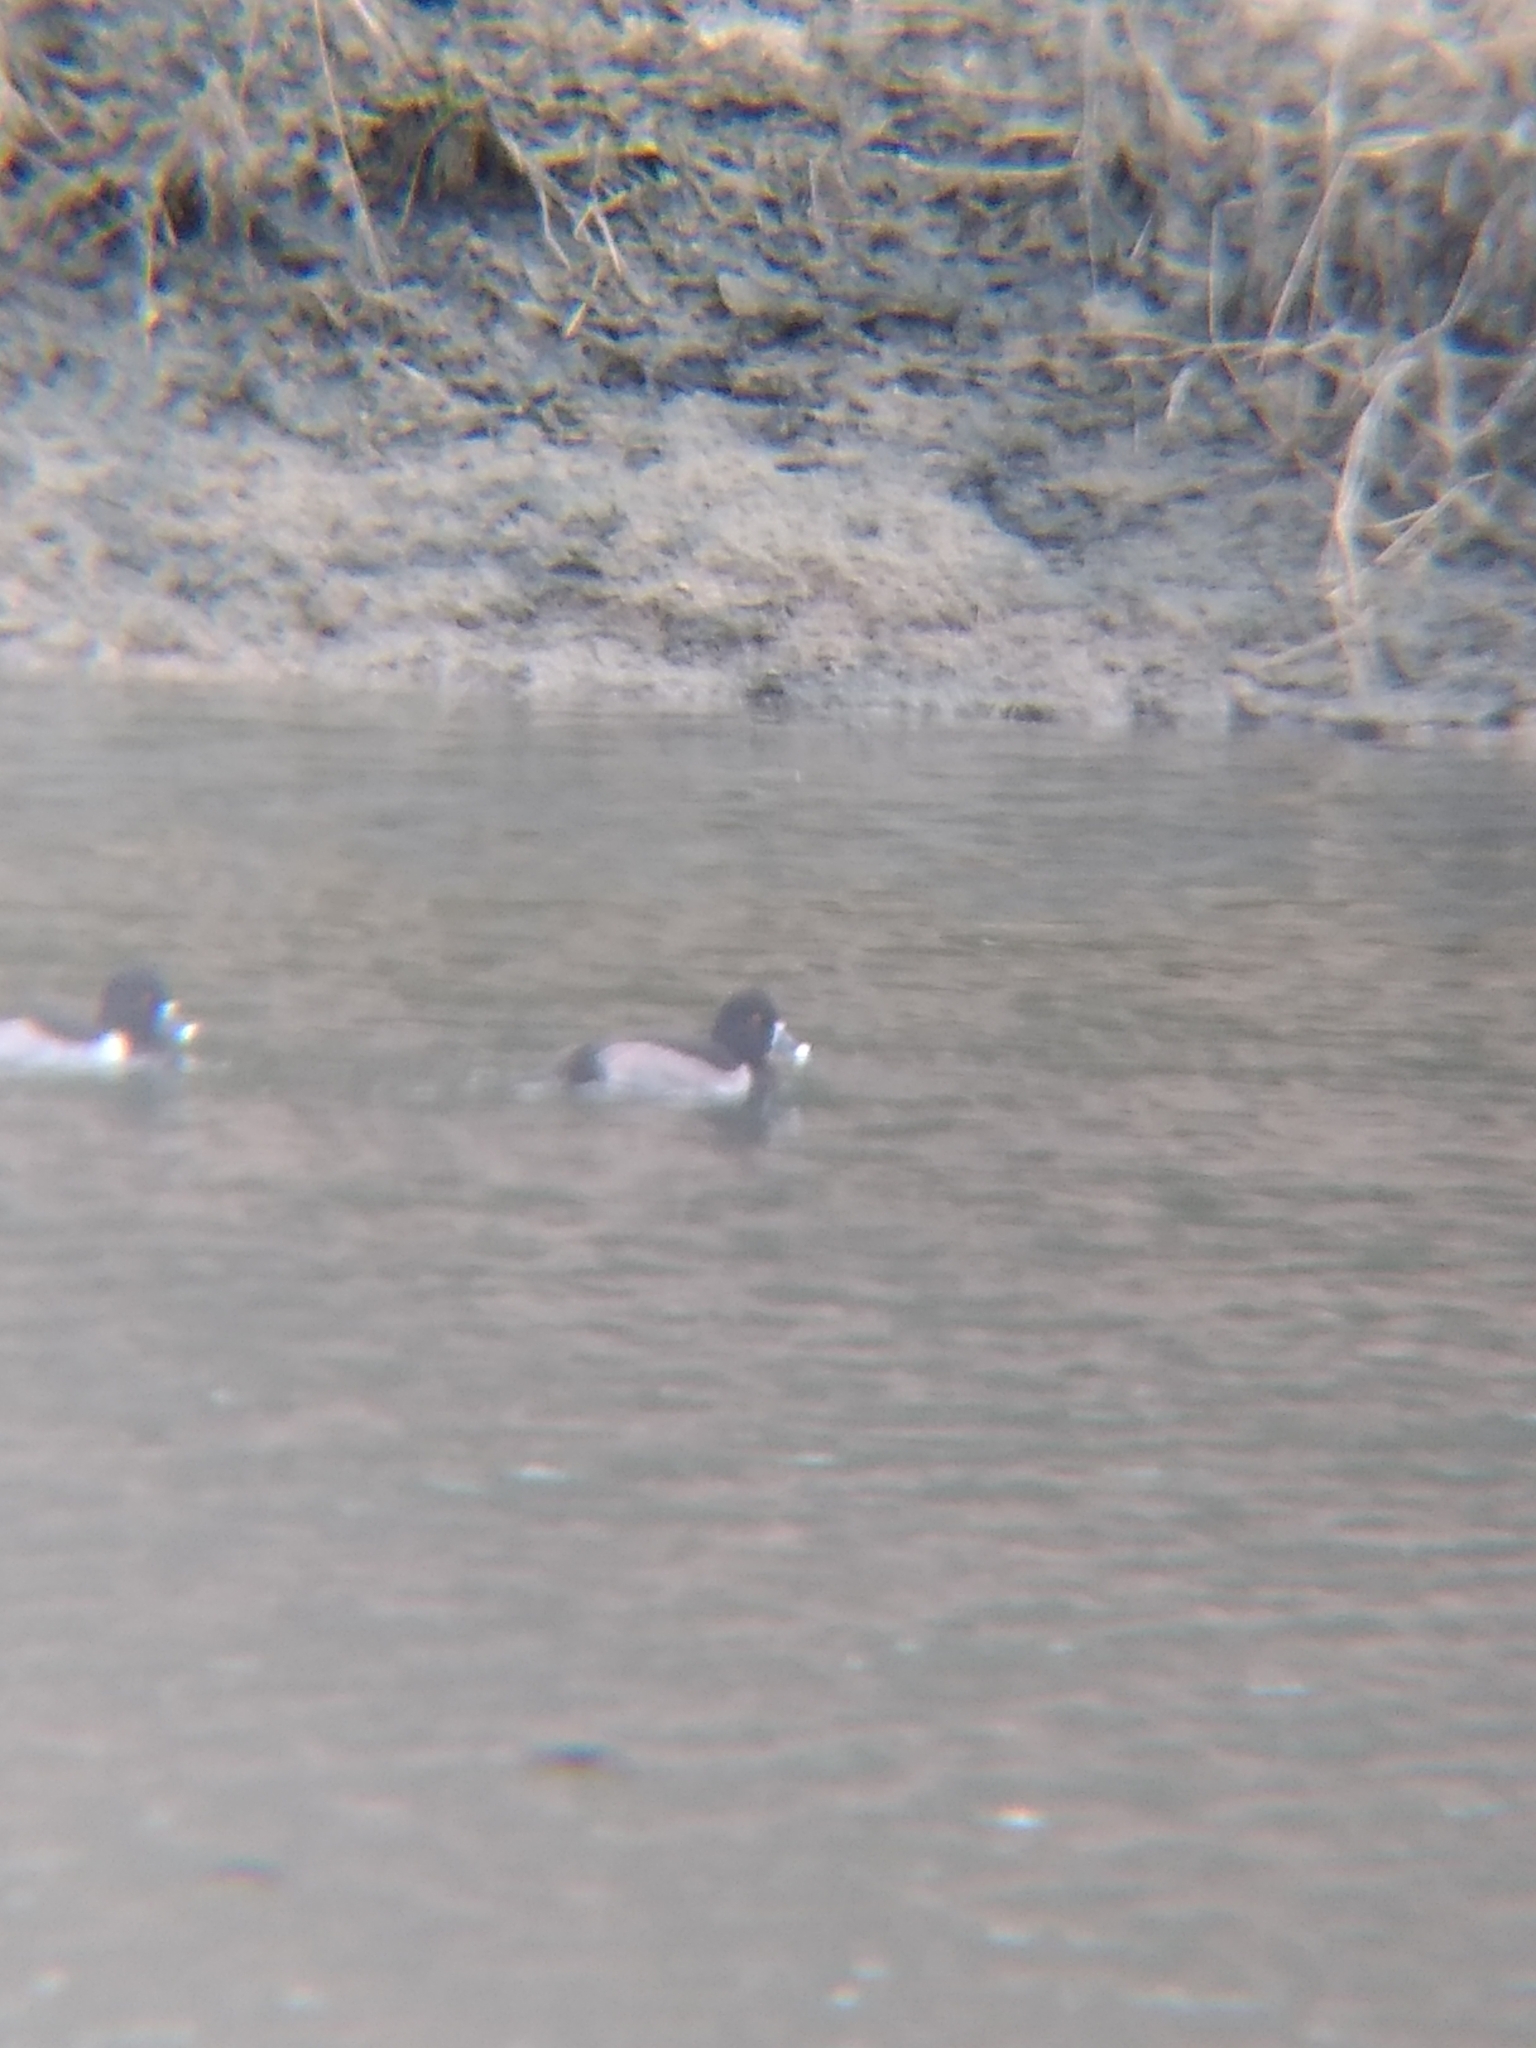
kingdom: Animalia
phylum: Chordata
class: Aves
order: Anseriformes
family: Anatidae
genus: Aythya
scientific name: Aythya collaris
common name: Ring-necked duck
